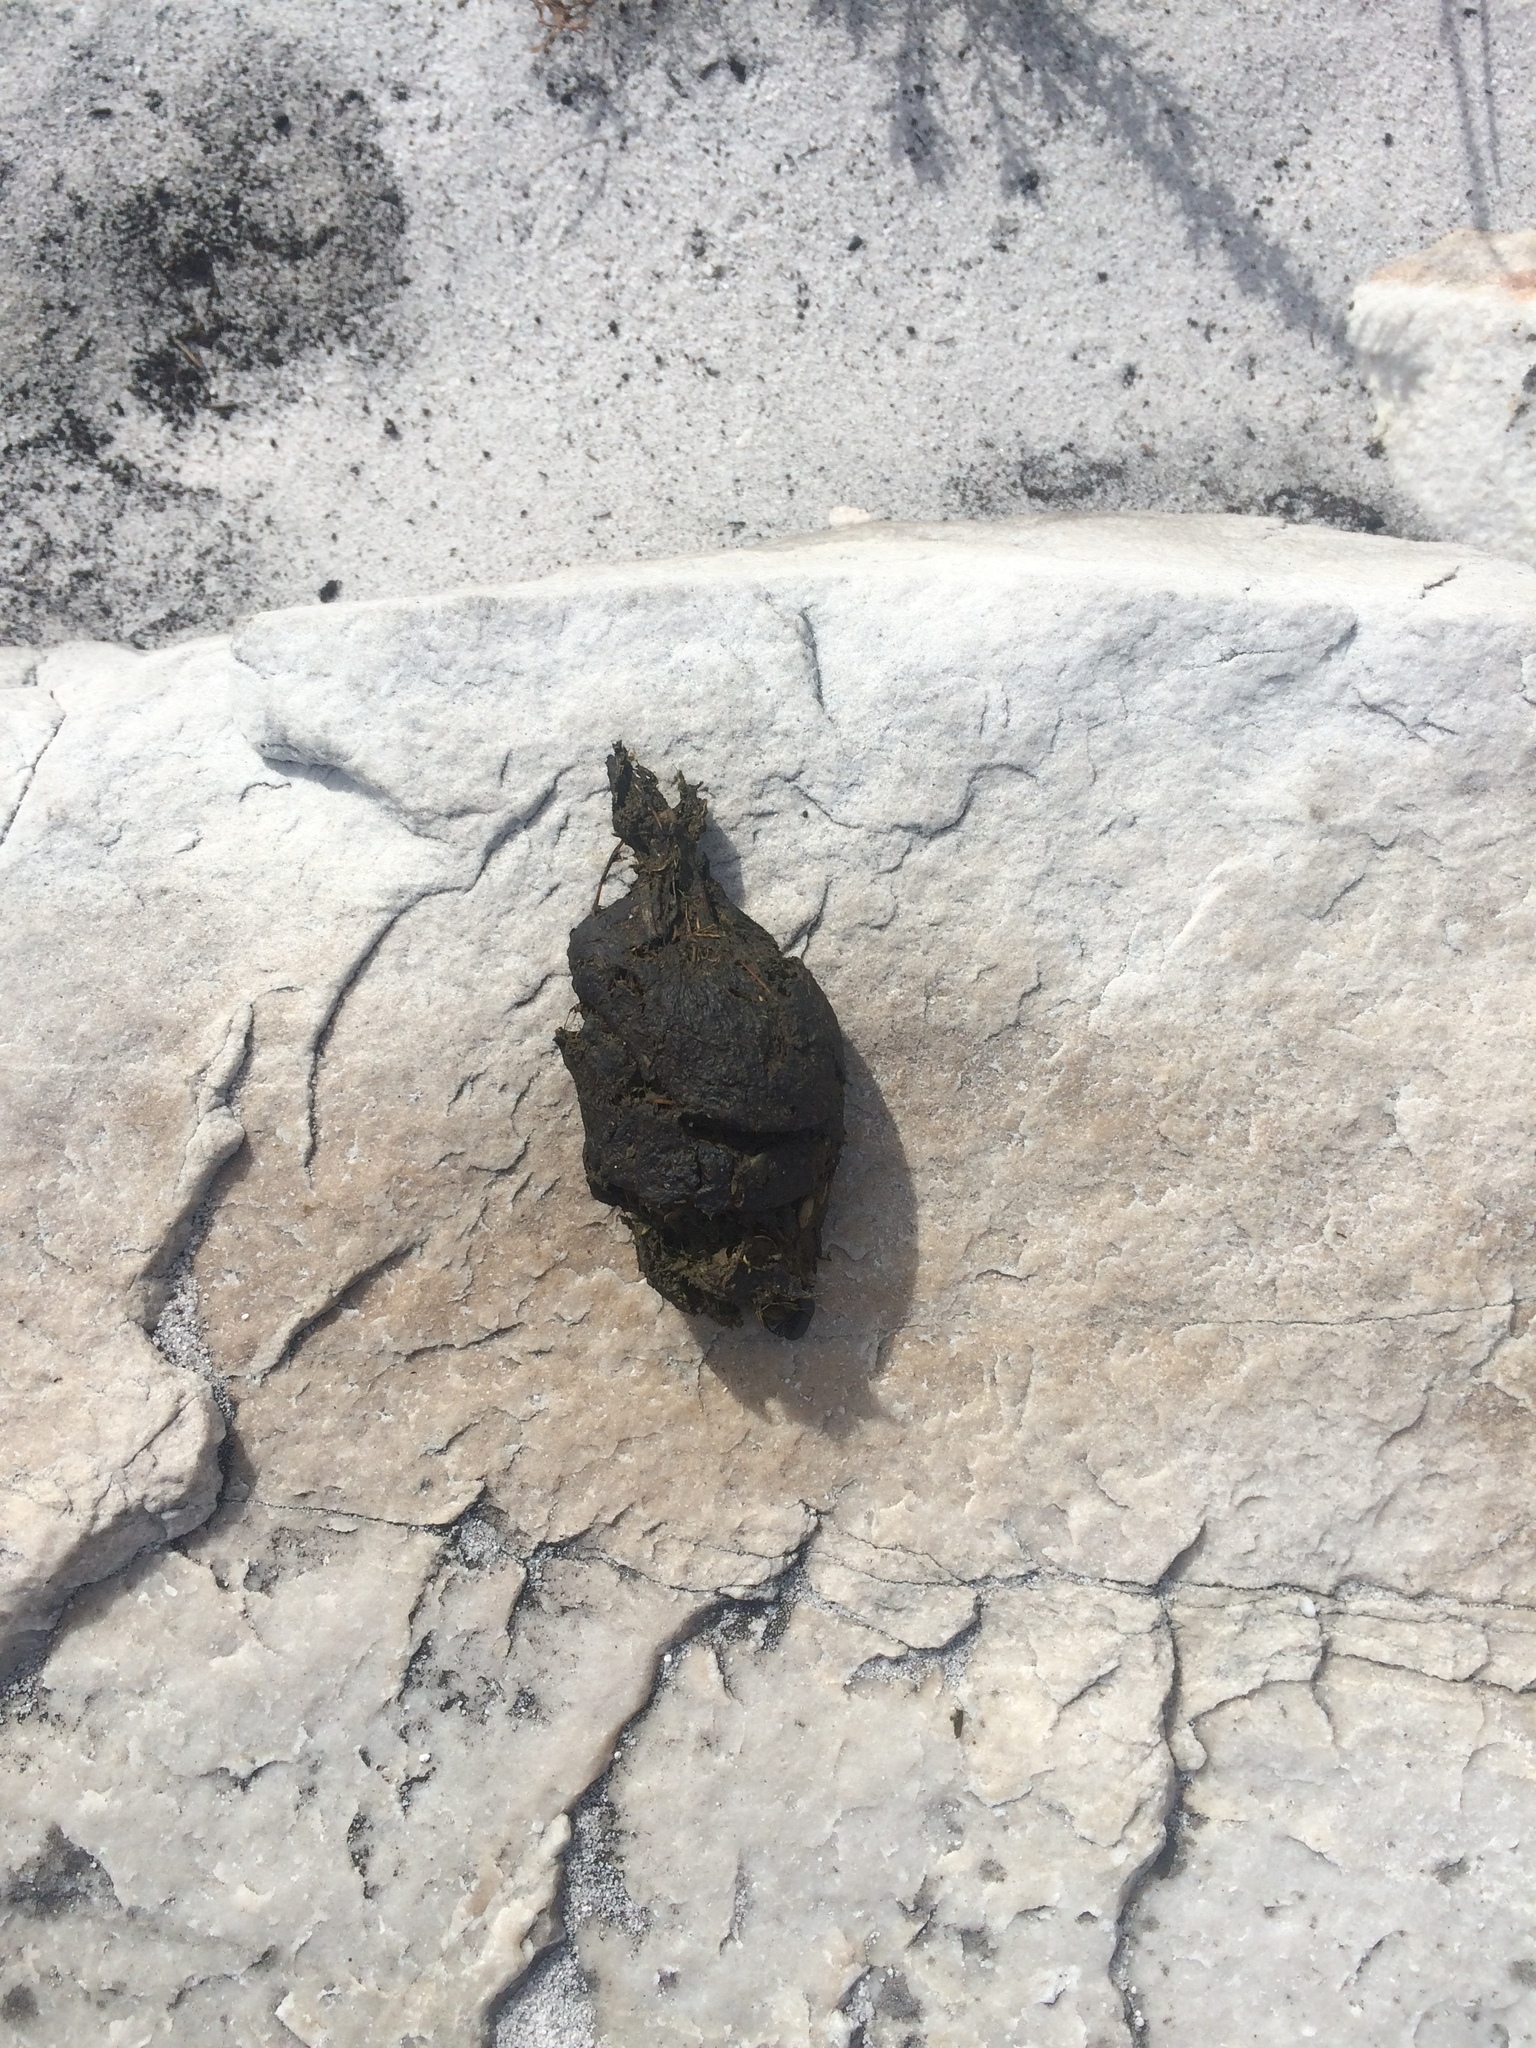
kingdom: Animalia
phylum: Chordata
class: Mammalia
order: Primates
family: Cercopithecidae
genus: Papio
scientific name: Papio ursinus
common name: Chacma baboon
